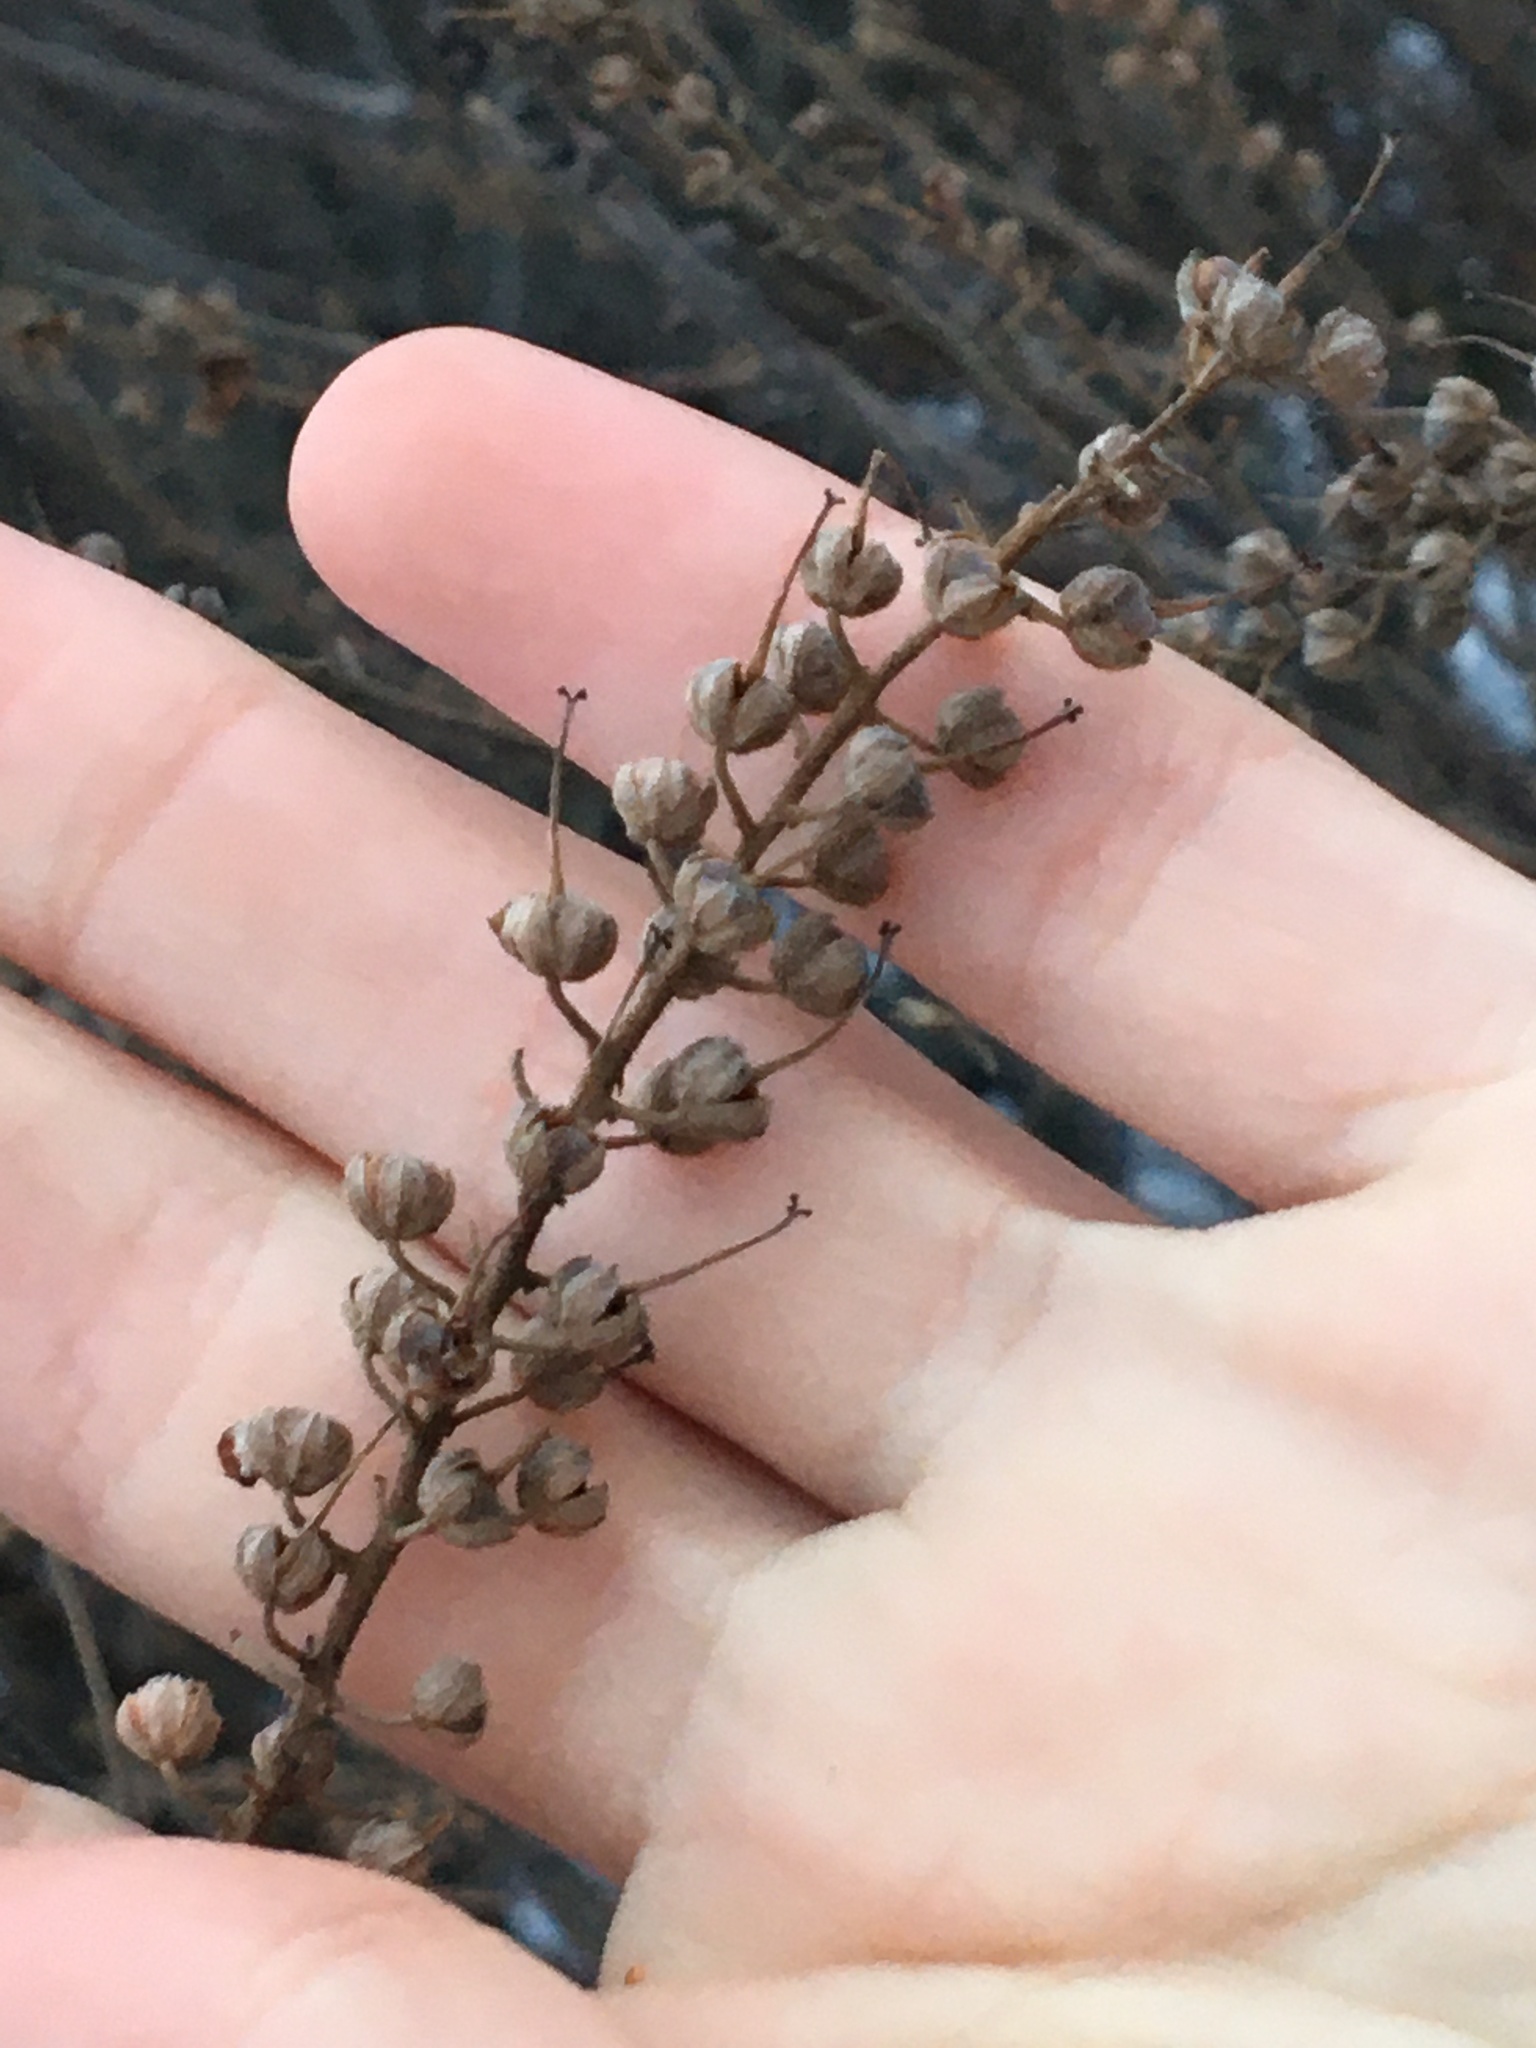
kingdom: Plantae
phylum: Tracheophyta
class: Magnoliopsida
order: Ericales
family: Clethraceae
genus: Clethra
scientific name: Clethra alnifolia
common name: Sweet pepperbush
